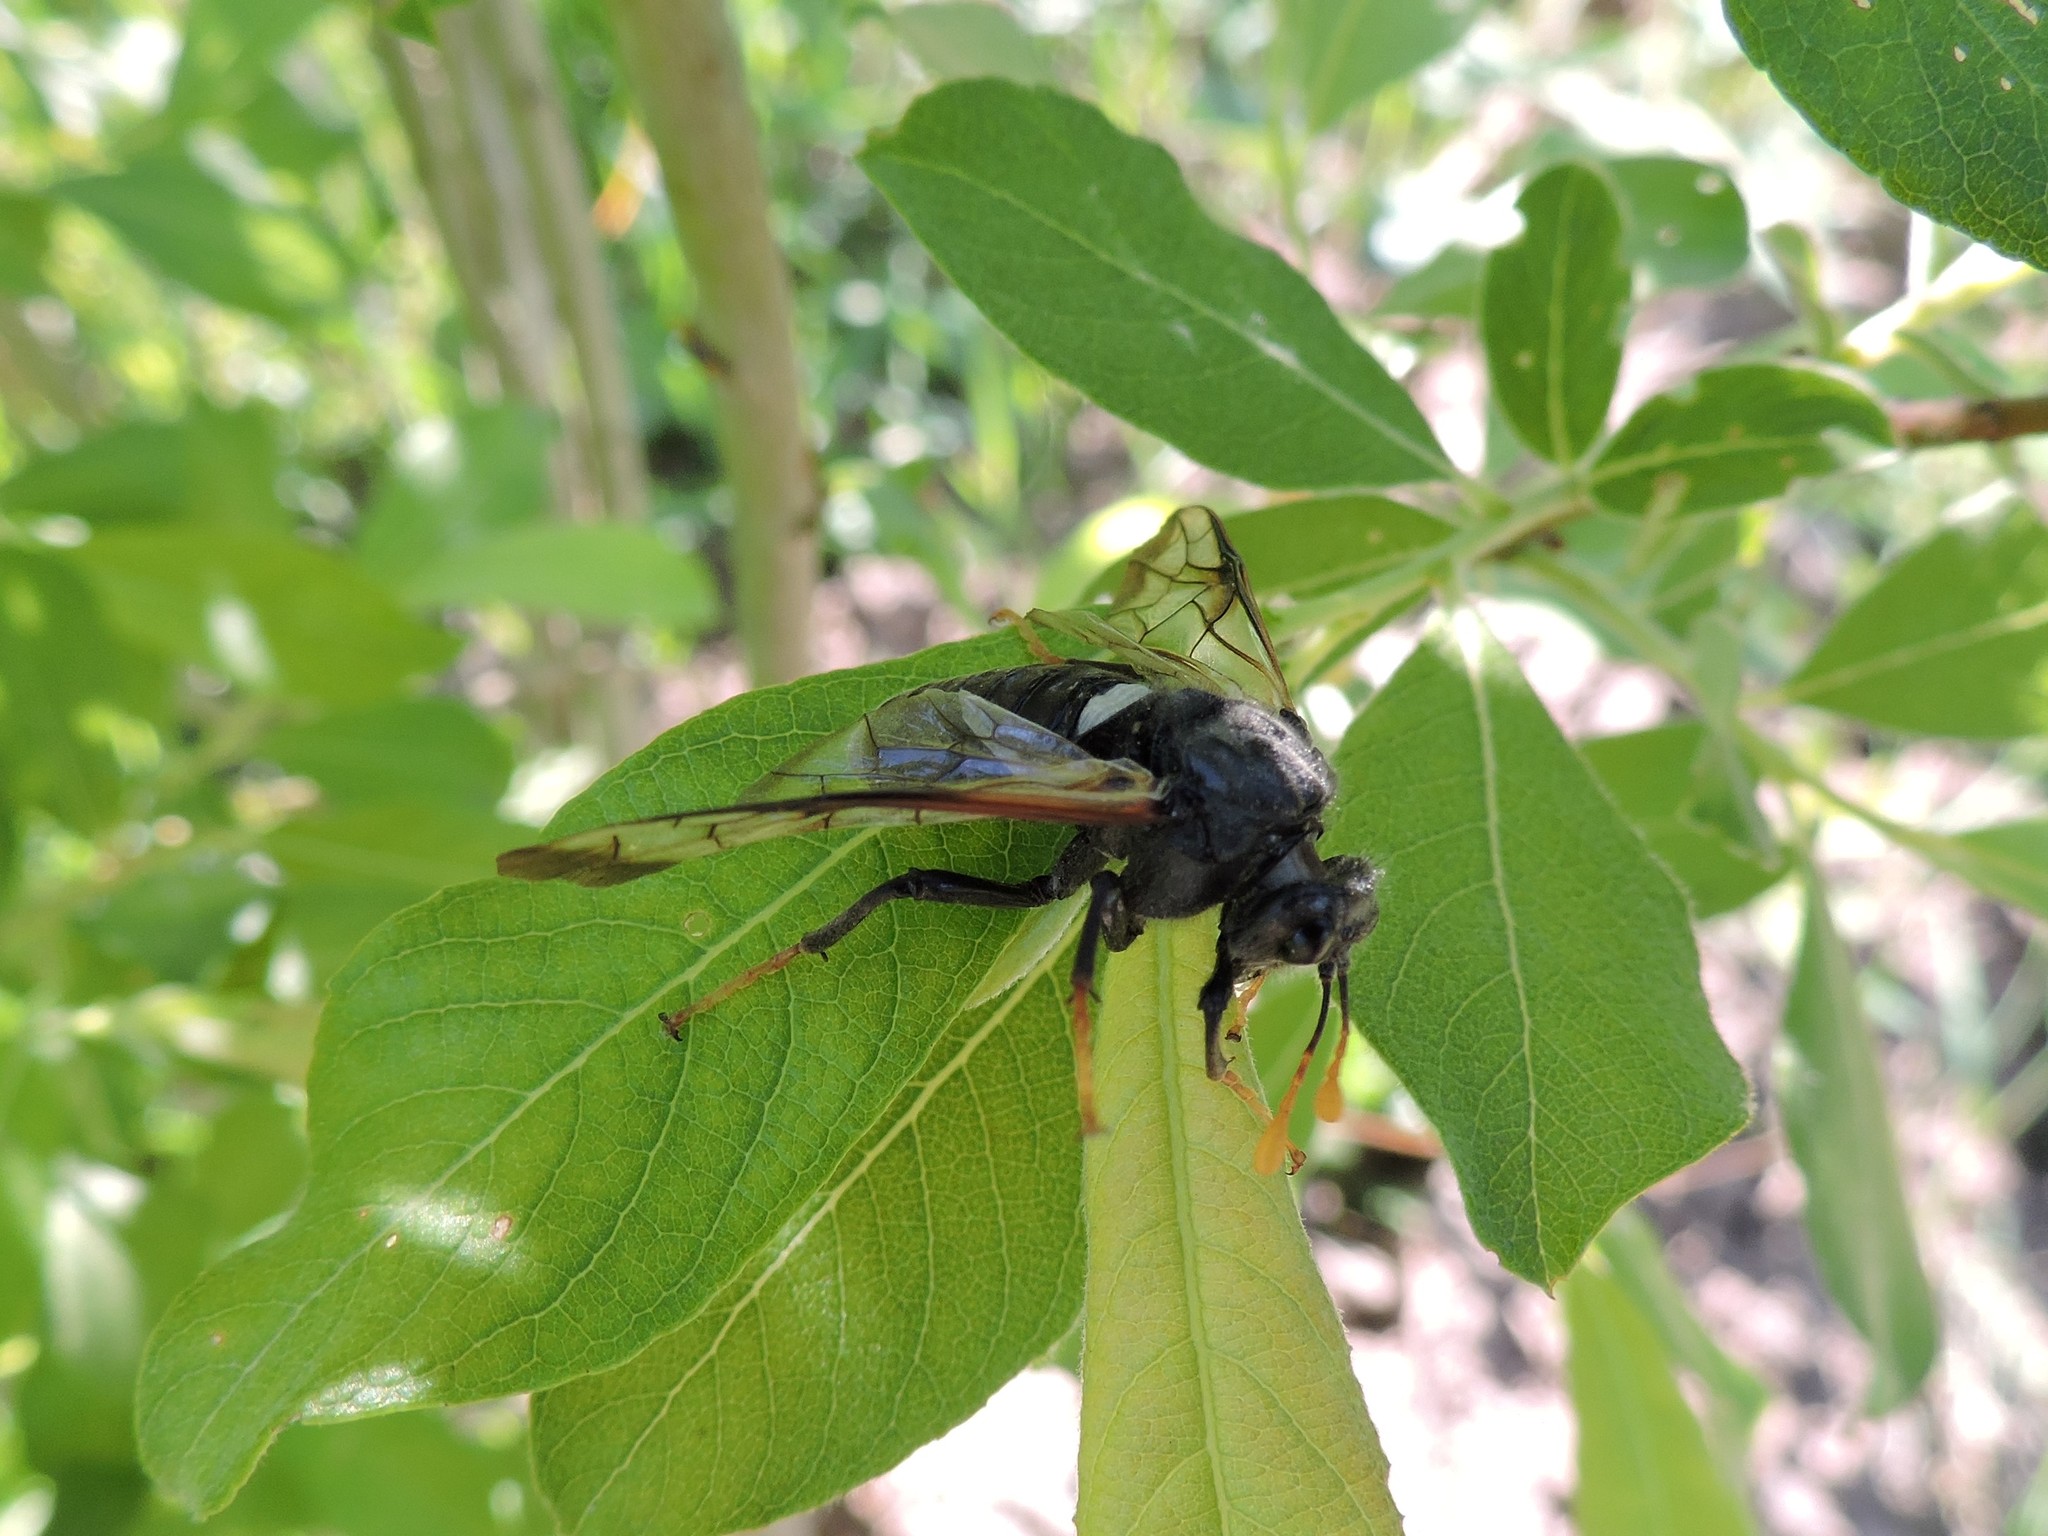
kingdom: Animalia
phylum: Arthropoda
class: Insecta
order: Hymenoptera
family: Cimbicidae
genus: Cimbex
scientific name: Cimbex femoratus
